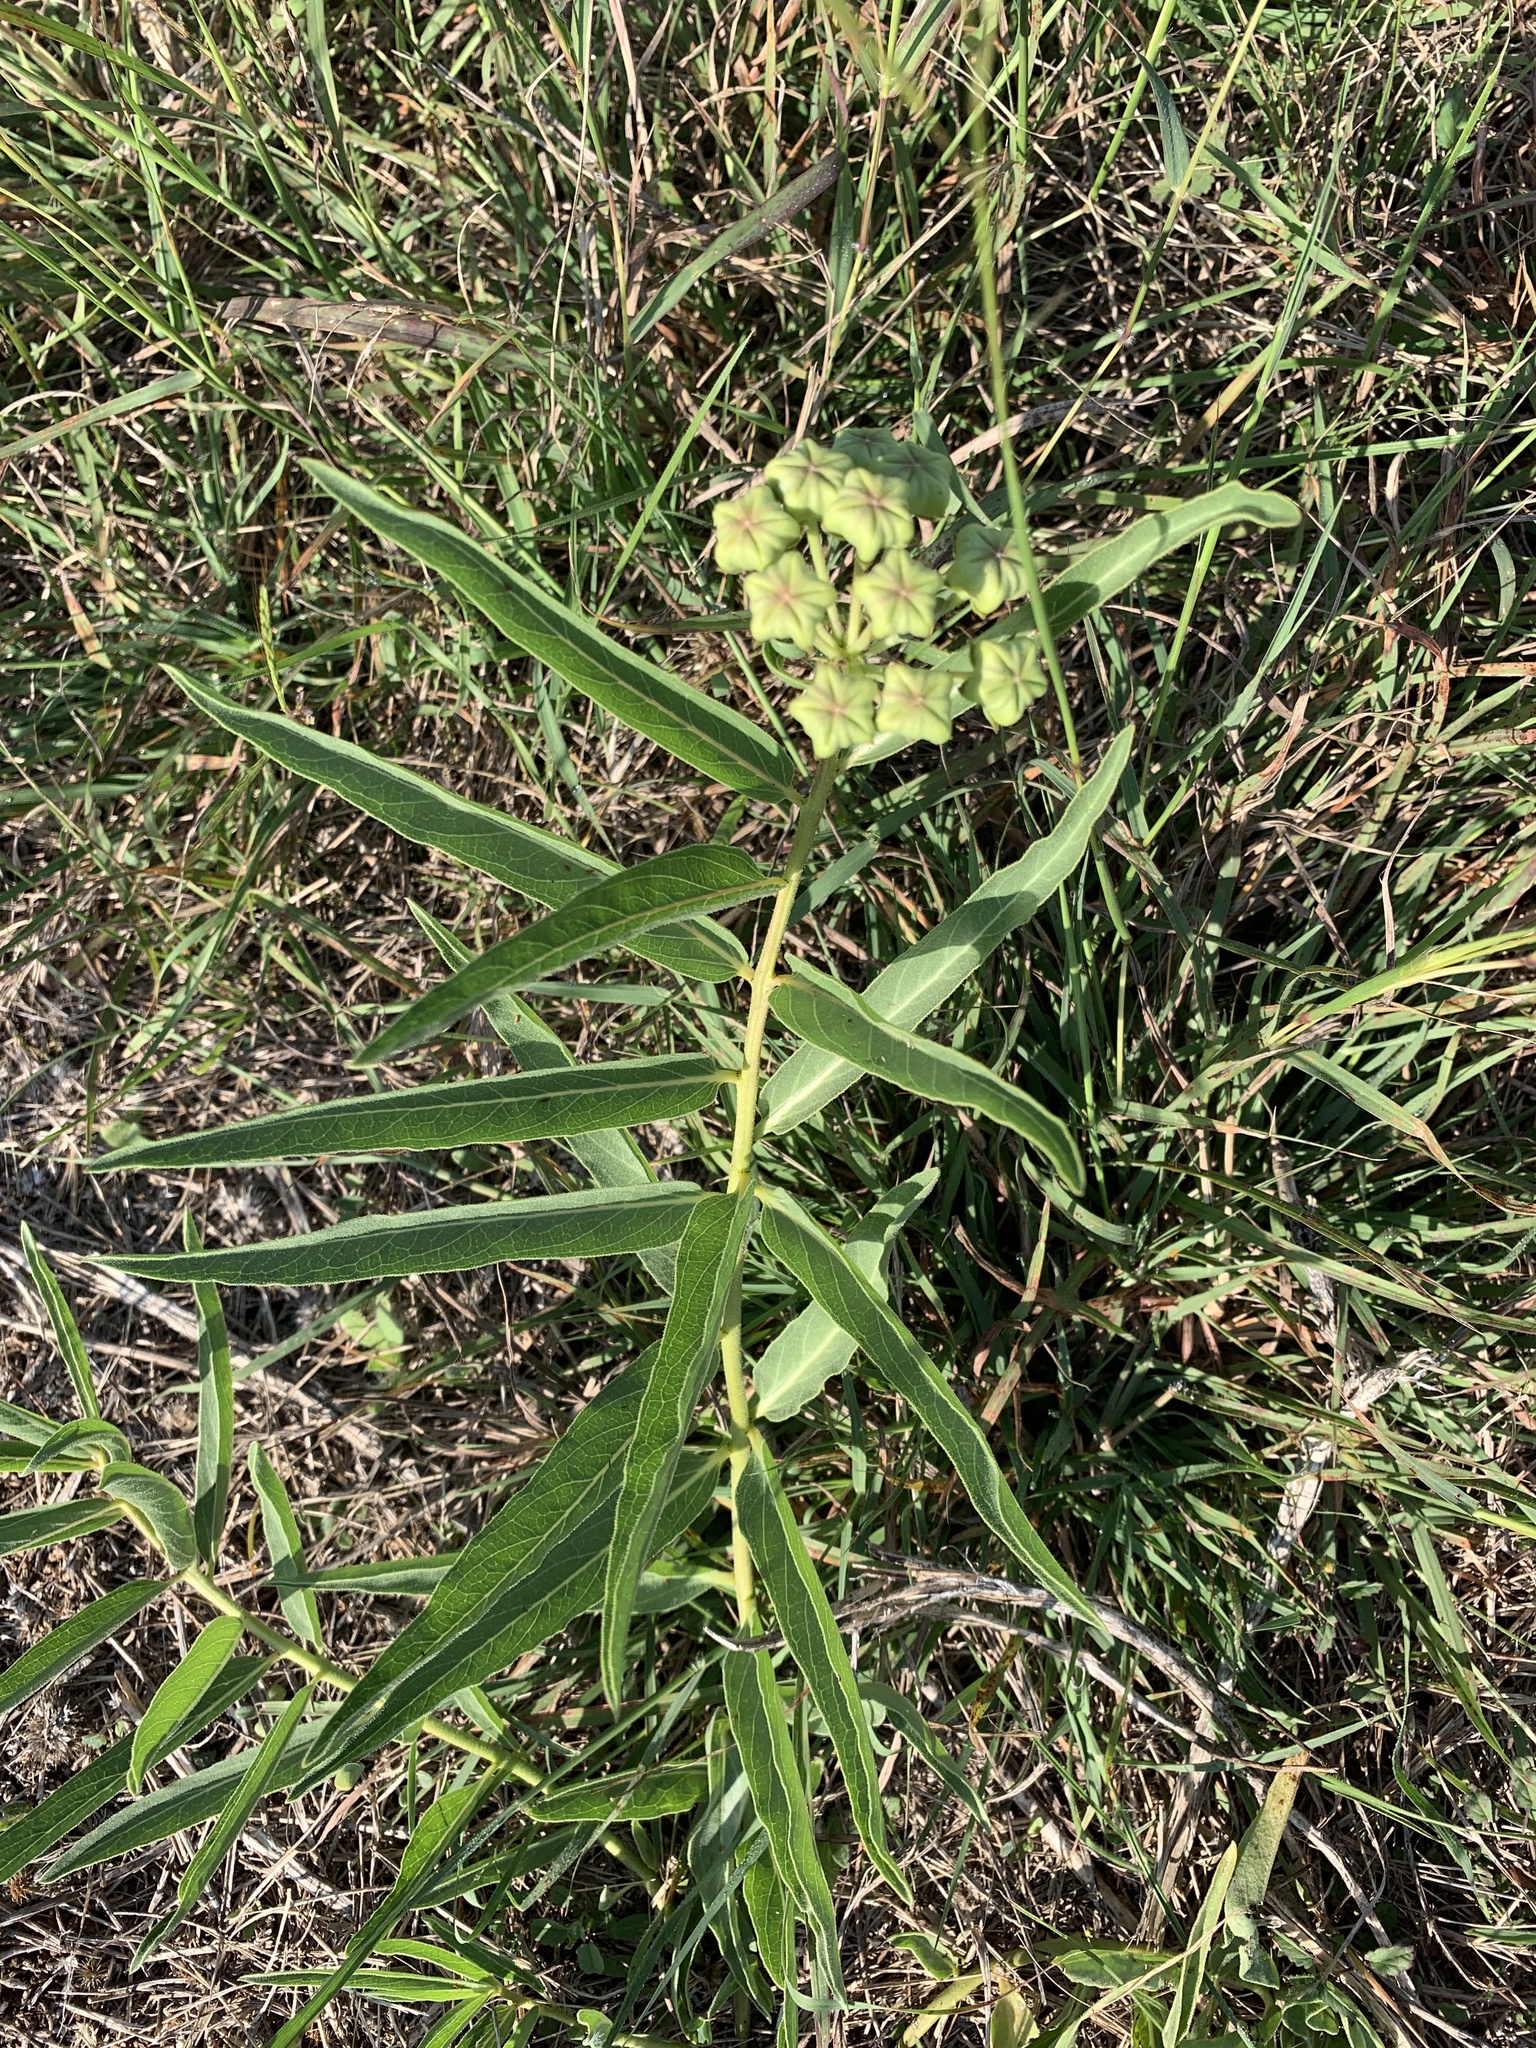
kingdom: Plantae
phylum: Tracheophyta
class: Magnoliopsida
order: Gentianales
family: Apocynaceae
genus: Asclepias
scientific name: Asclepias asperula
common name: Antelope horns
